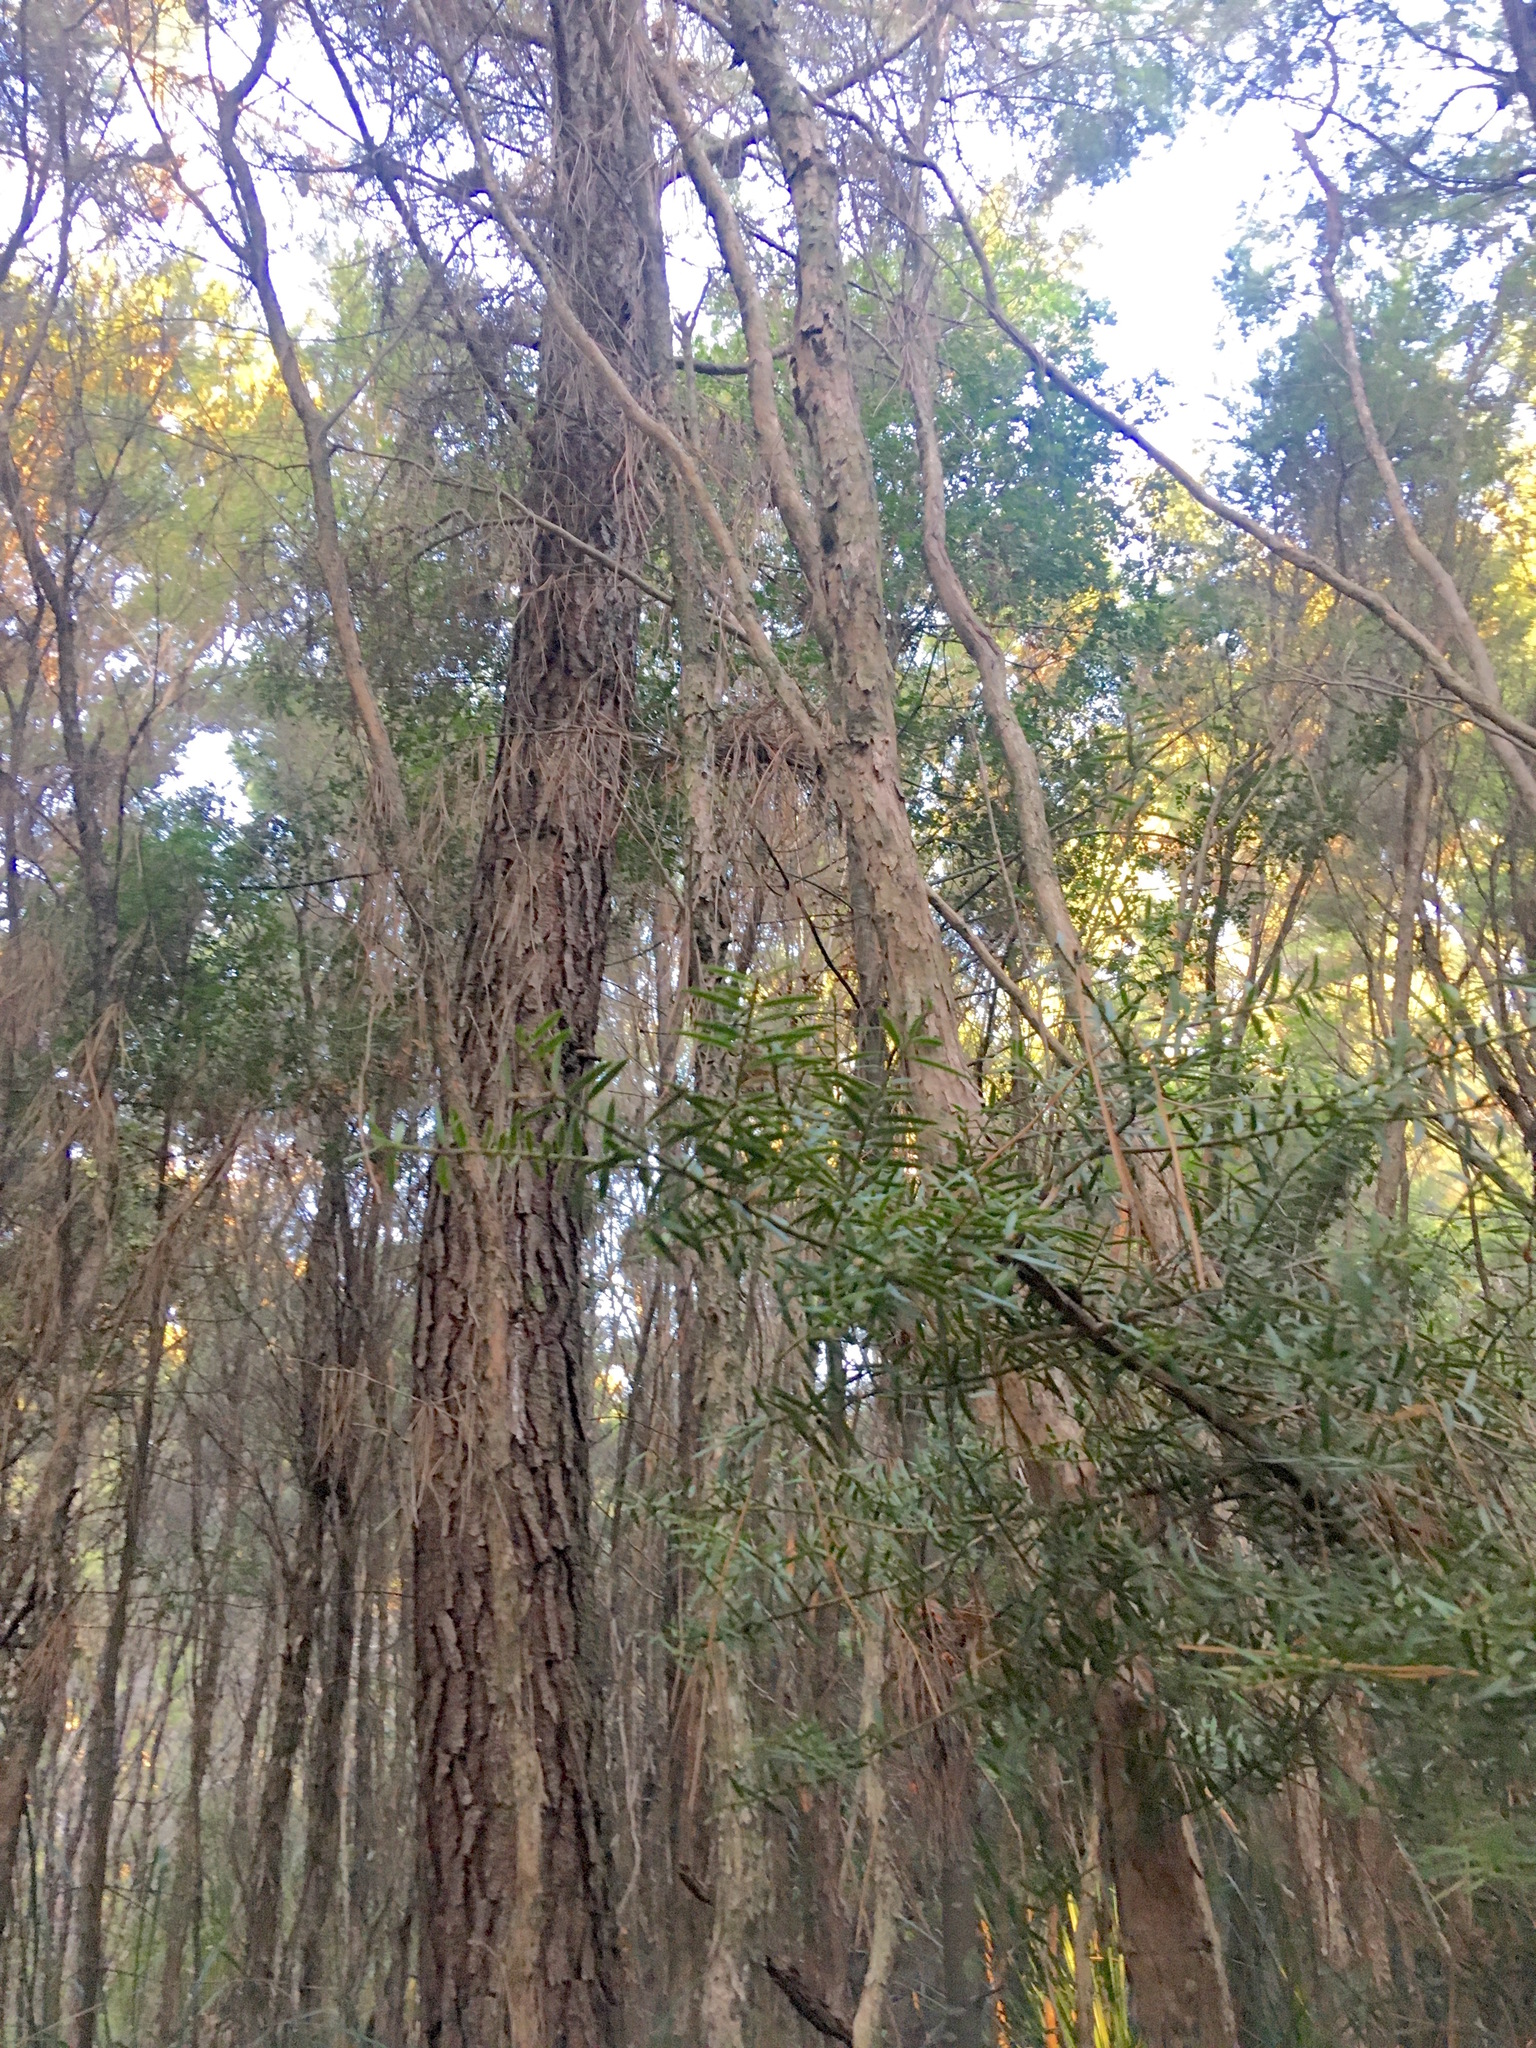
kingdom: Plantae
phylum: Tracheophyta
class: Pinopsida
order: Pinales
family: Podocarpaceae
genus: Podocarpus
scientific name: Podocarpus totara
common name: Totara
